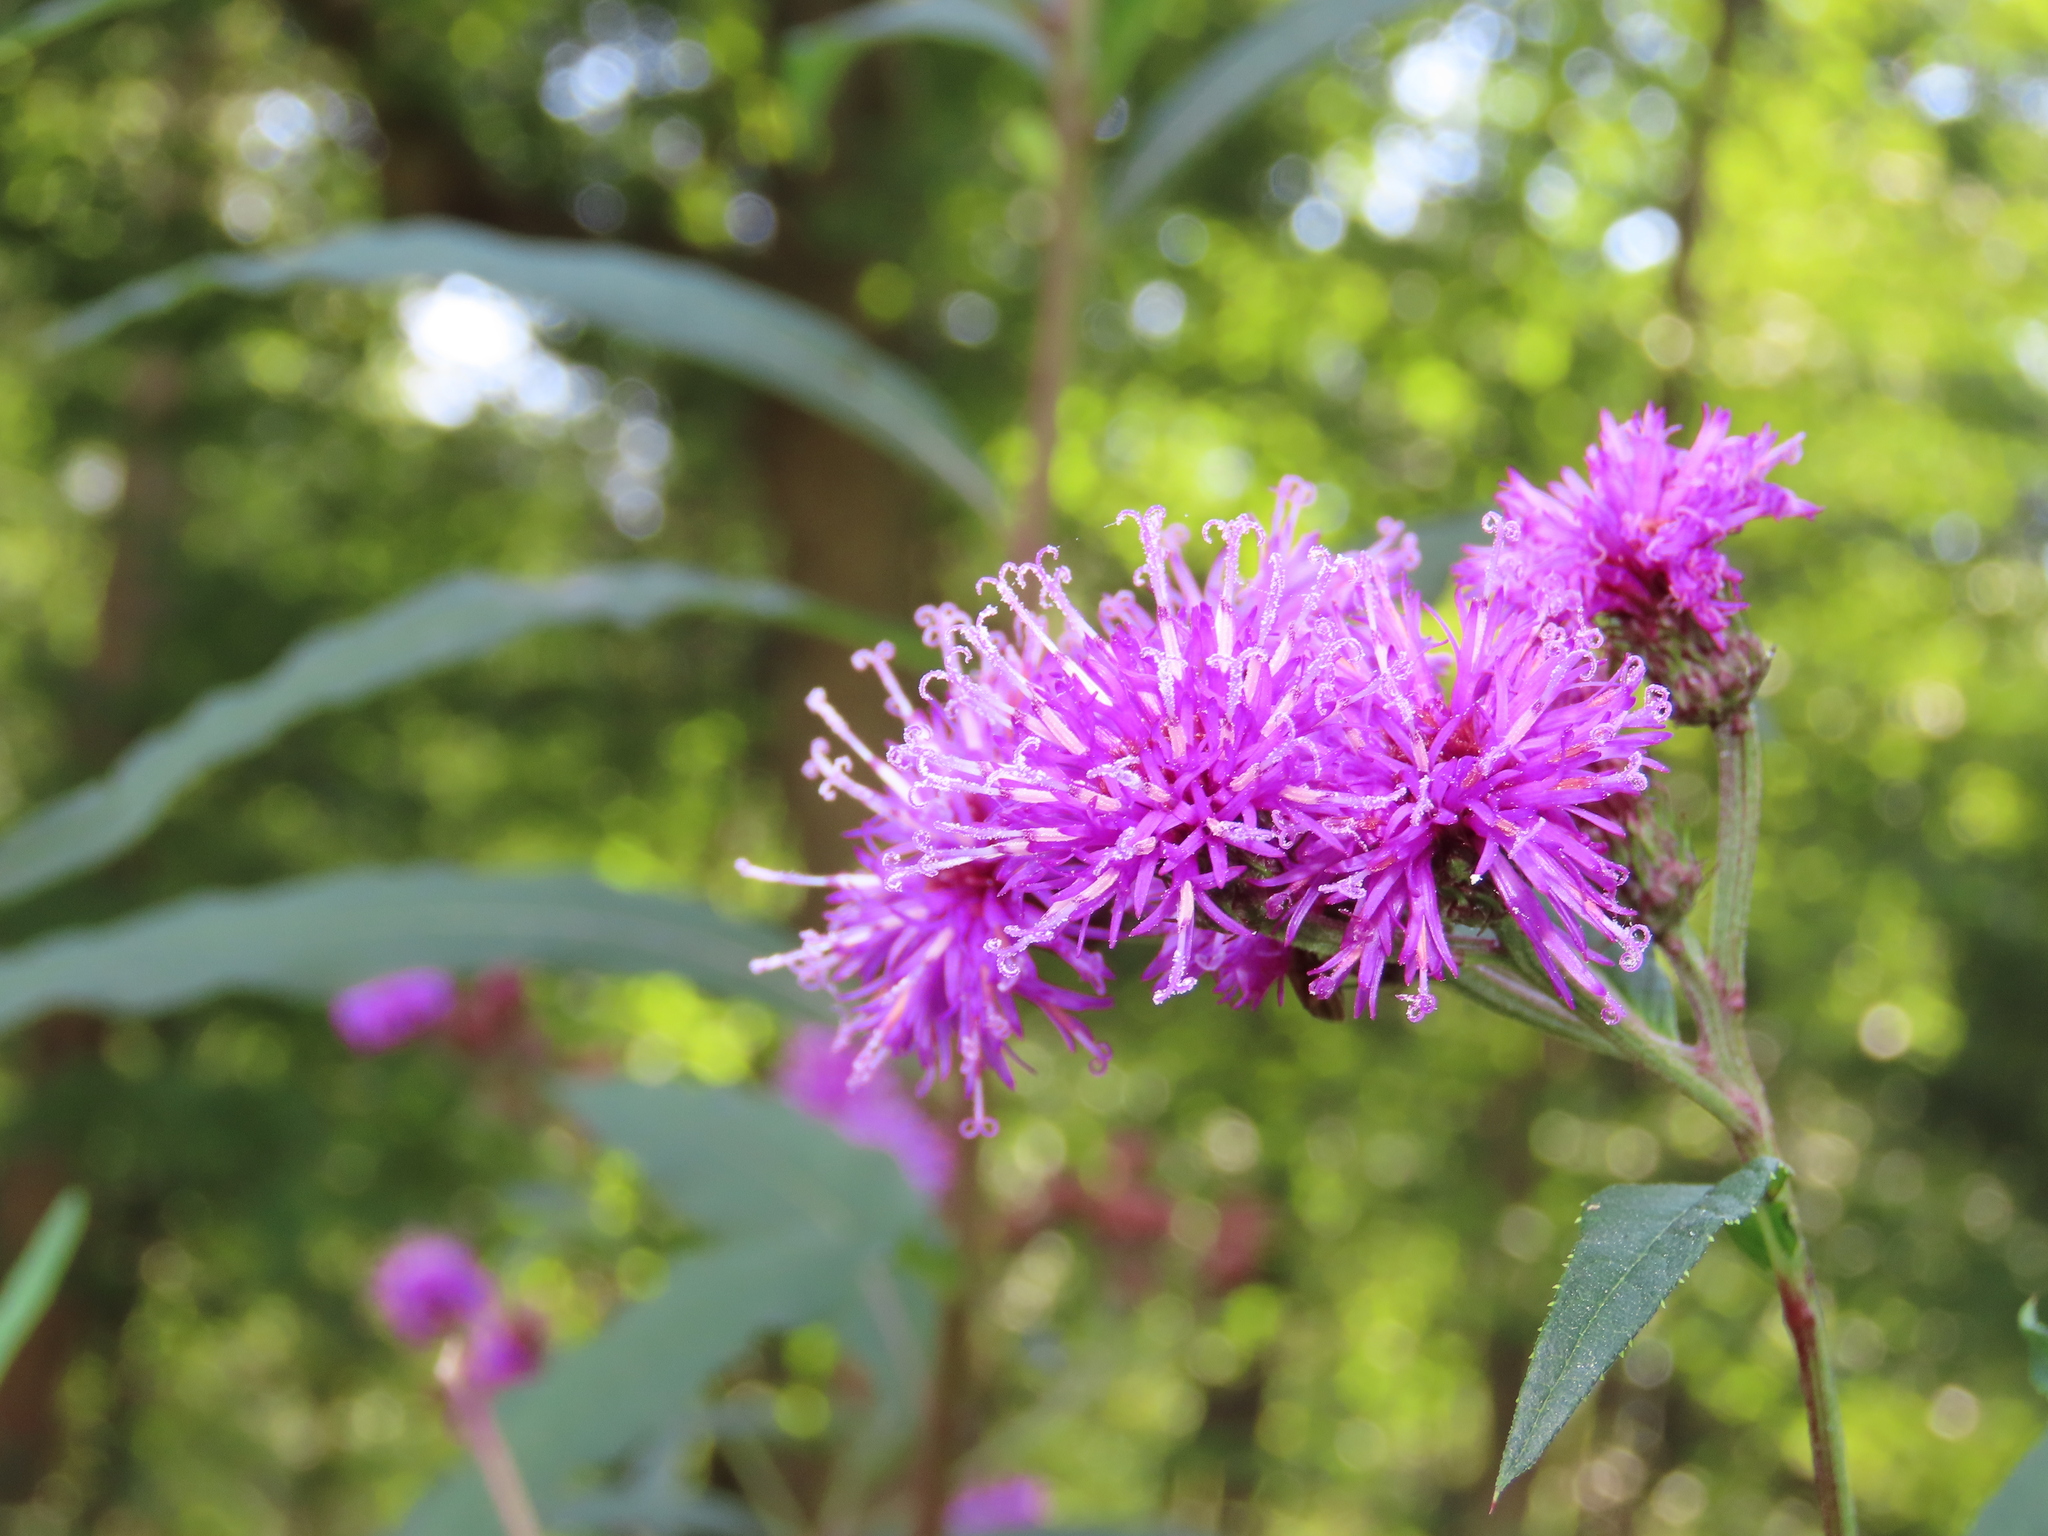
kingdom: Plantae
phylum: Tracheophyta
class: Magnoliopsida
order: Asterales
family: Asteraceae
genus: Vernonia
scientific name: Vernonia noveboracensis
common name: New york ironweed
